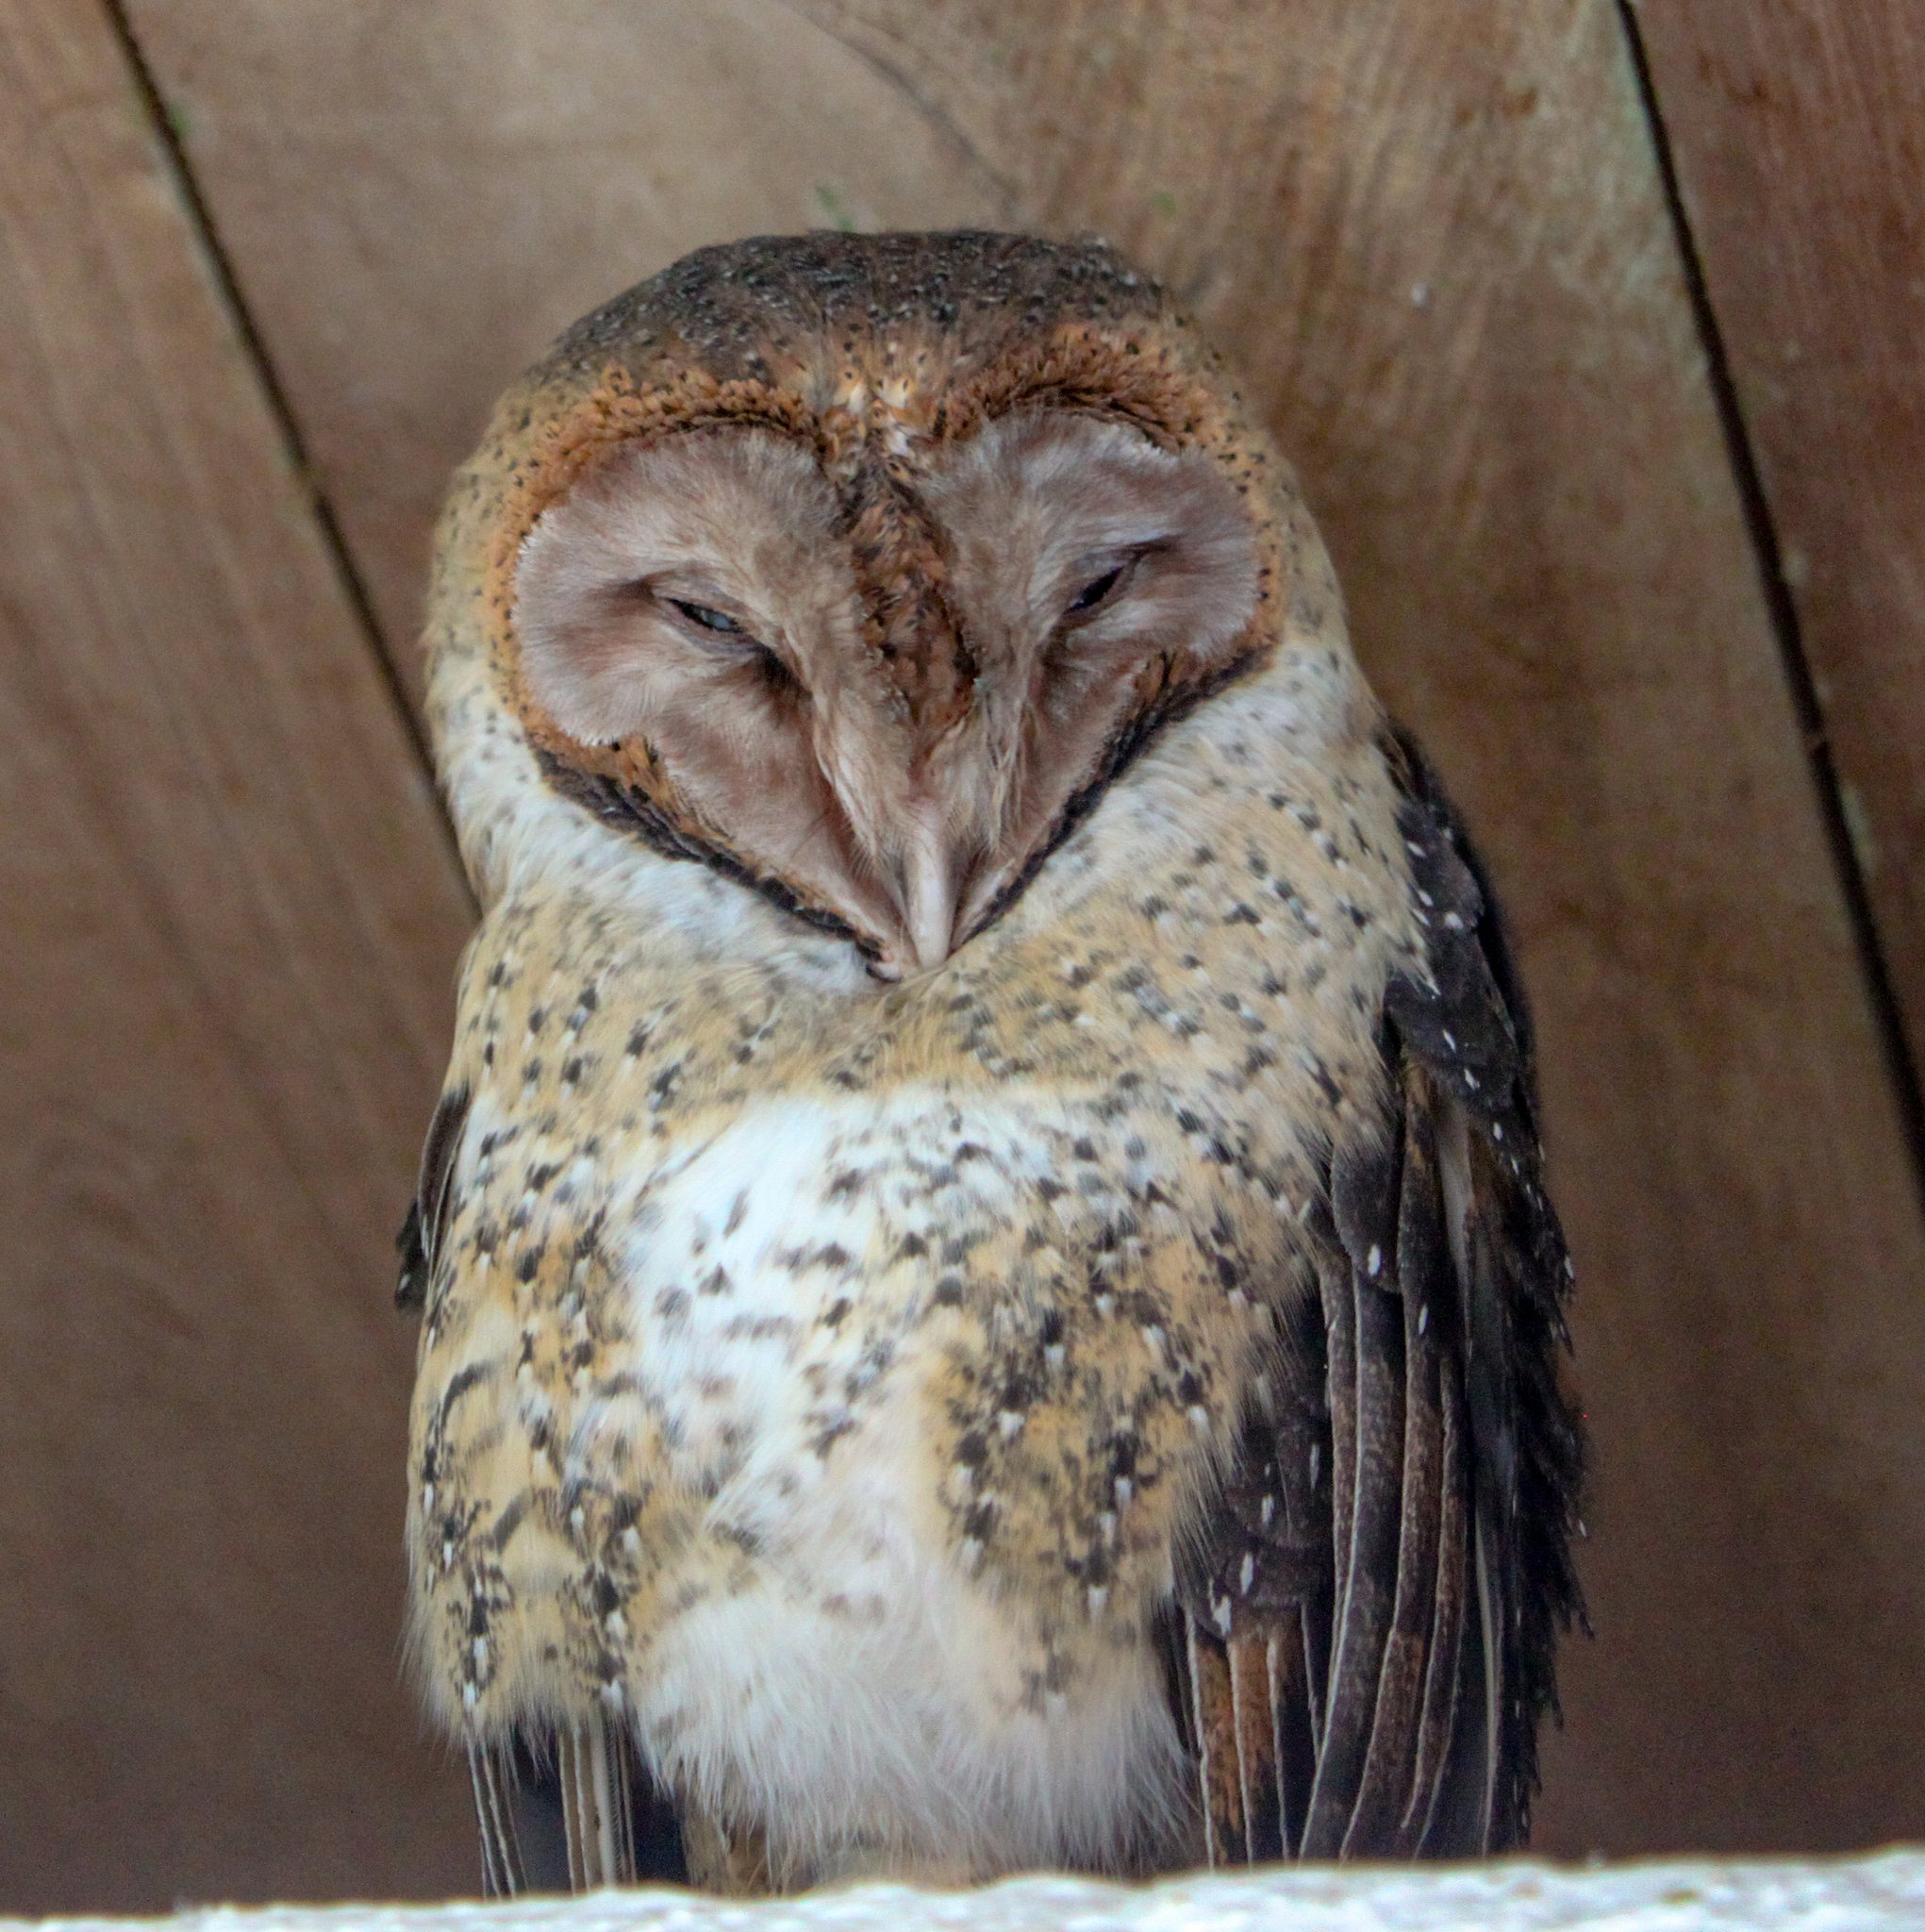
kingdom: Animalia
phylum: Chordata
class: Aves
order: Strigiformes
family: Tytonidae
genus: Tyto
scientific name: Tyto furcata
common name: American barn owl
